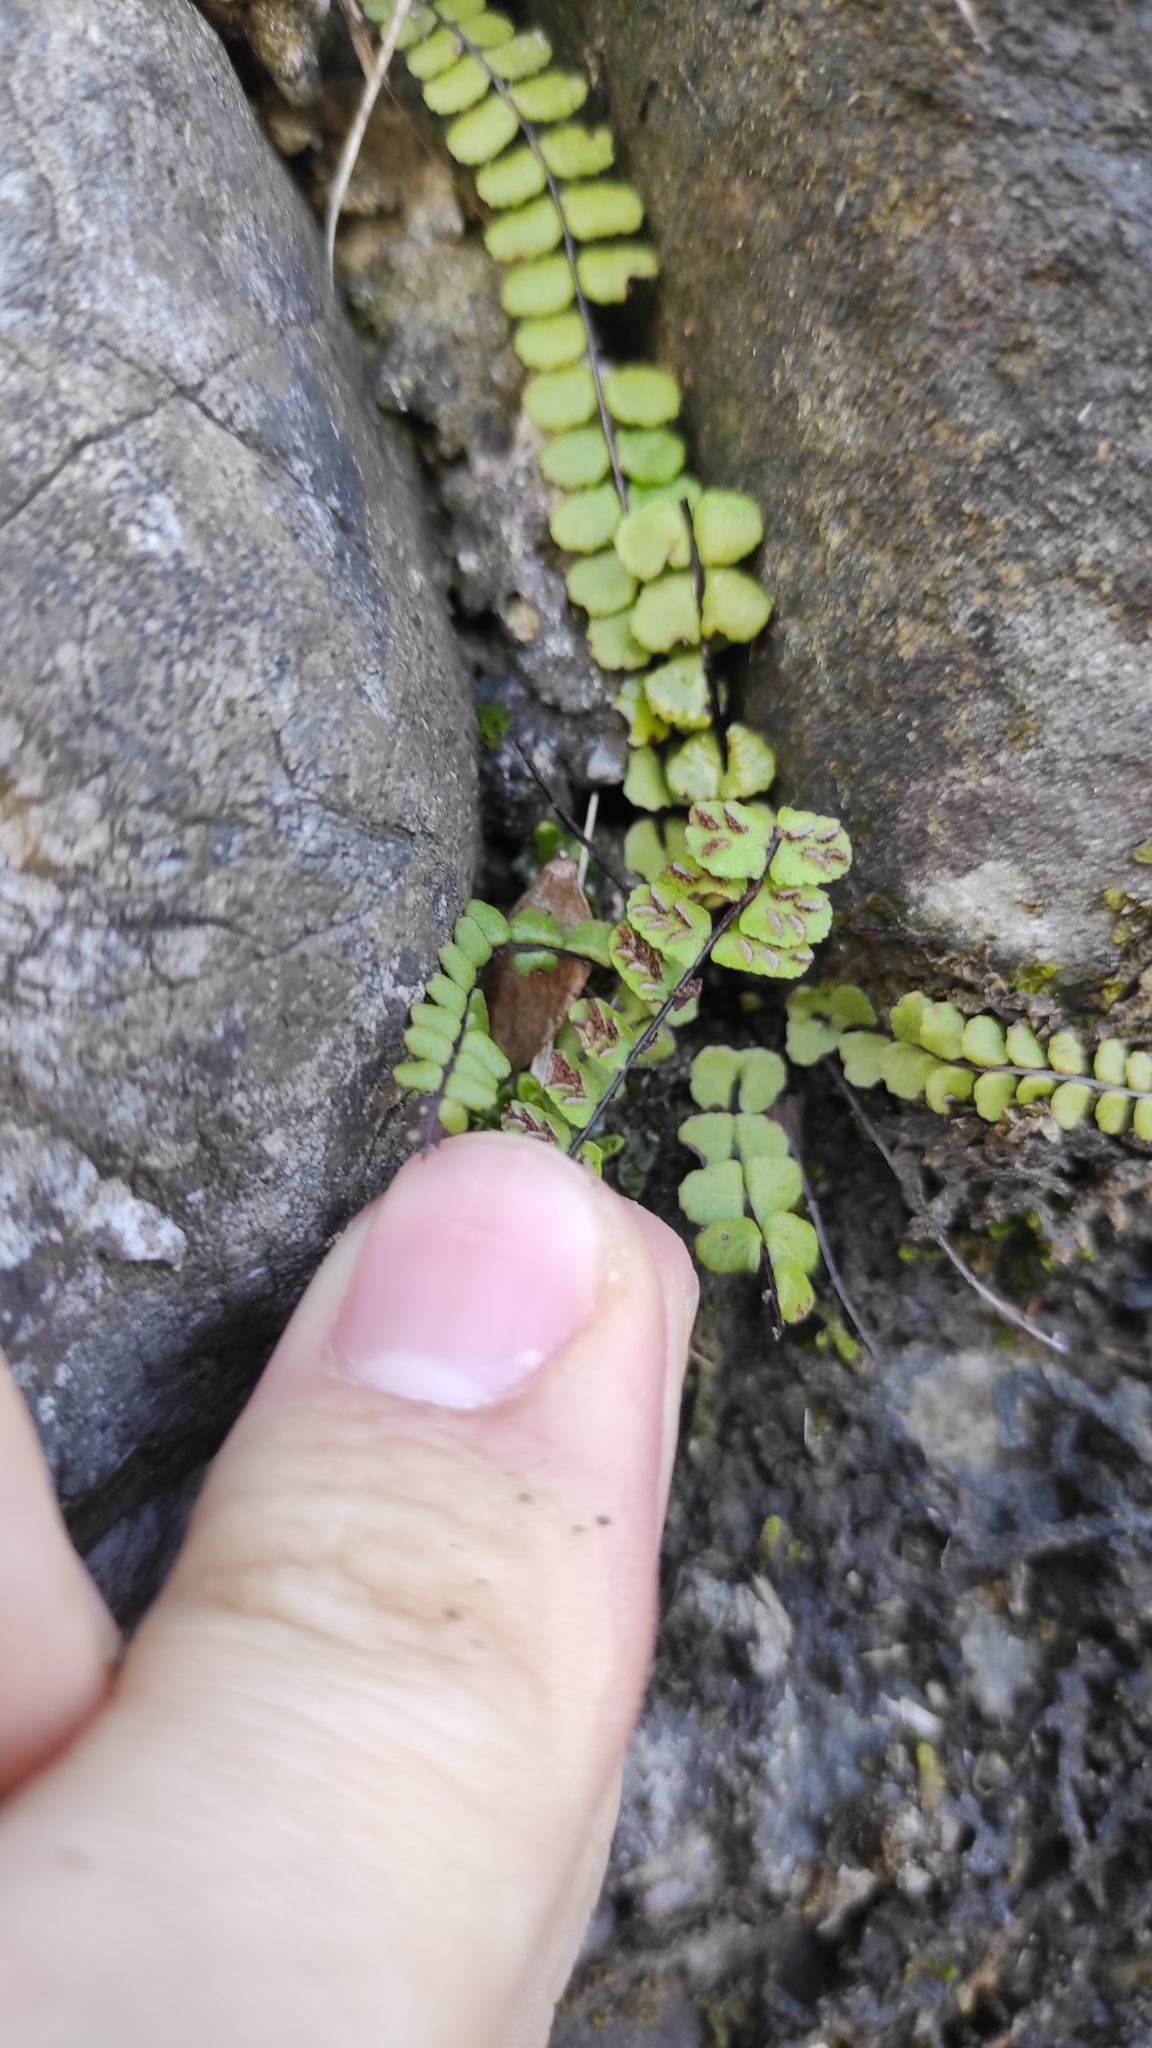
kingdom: Plantae
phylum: Tracheophyta
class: Polypodiopsida
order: Polypodiales
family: Aspleniaceae
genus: Asplenium
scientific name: Asplenium trichomanes
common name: Maidenhair spleenwort
